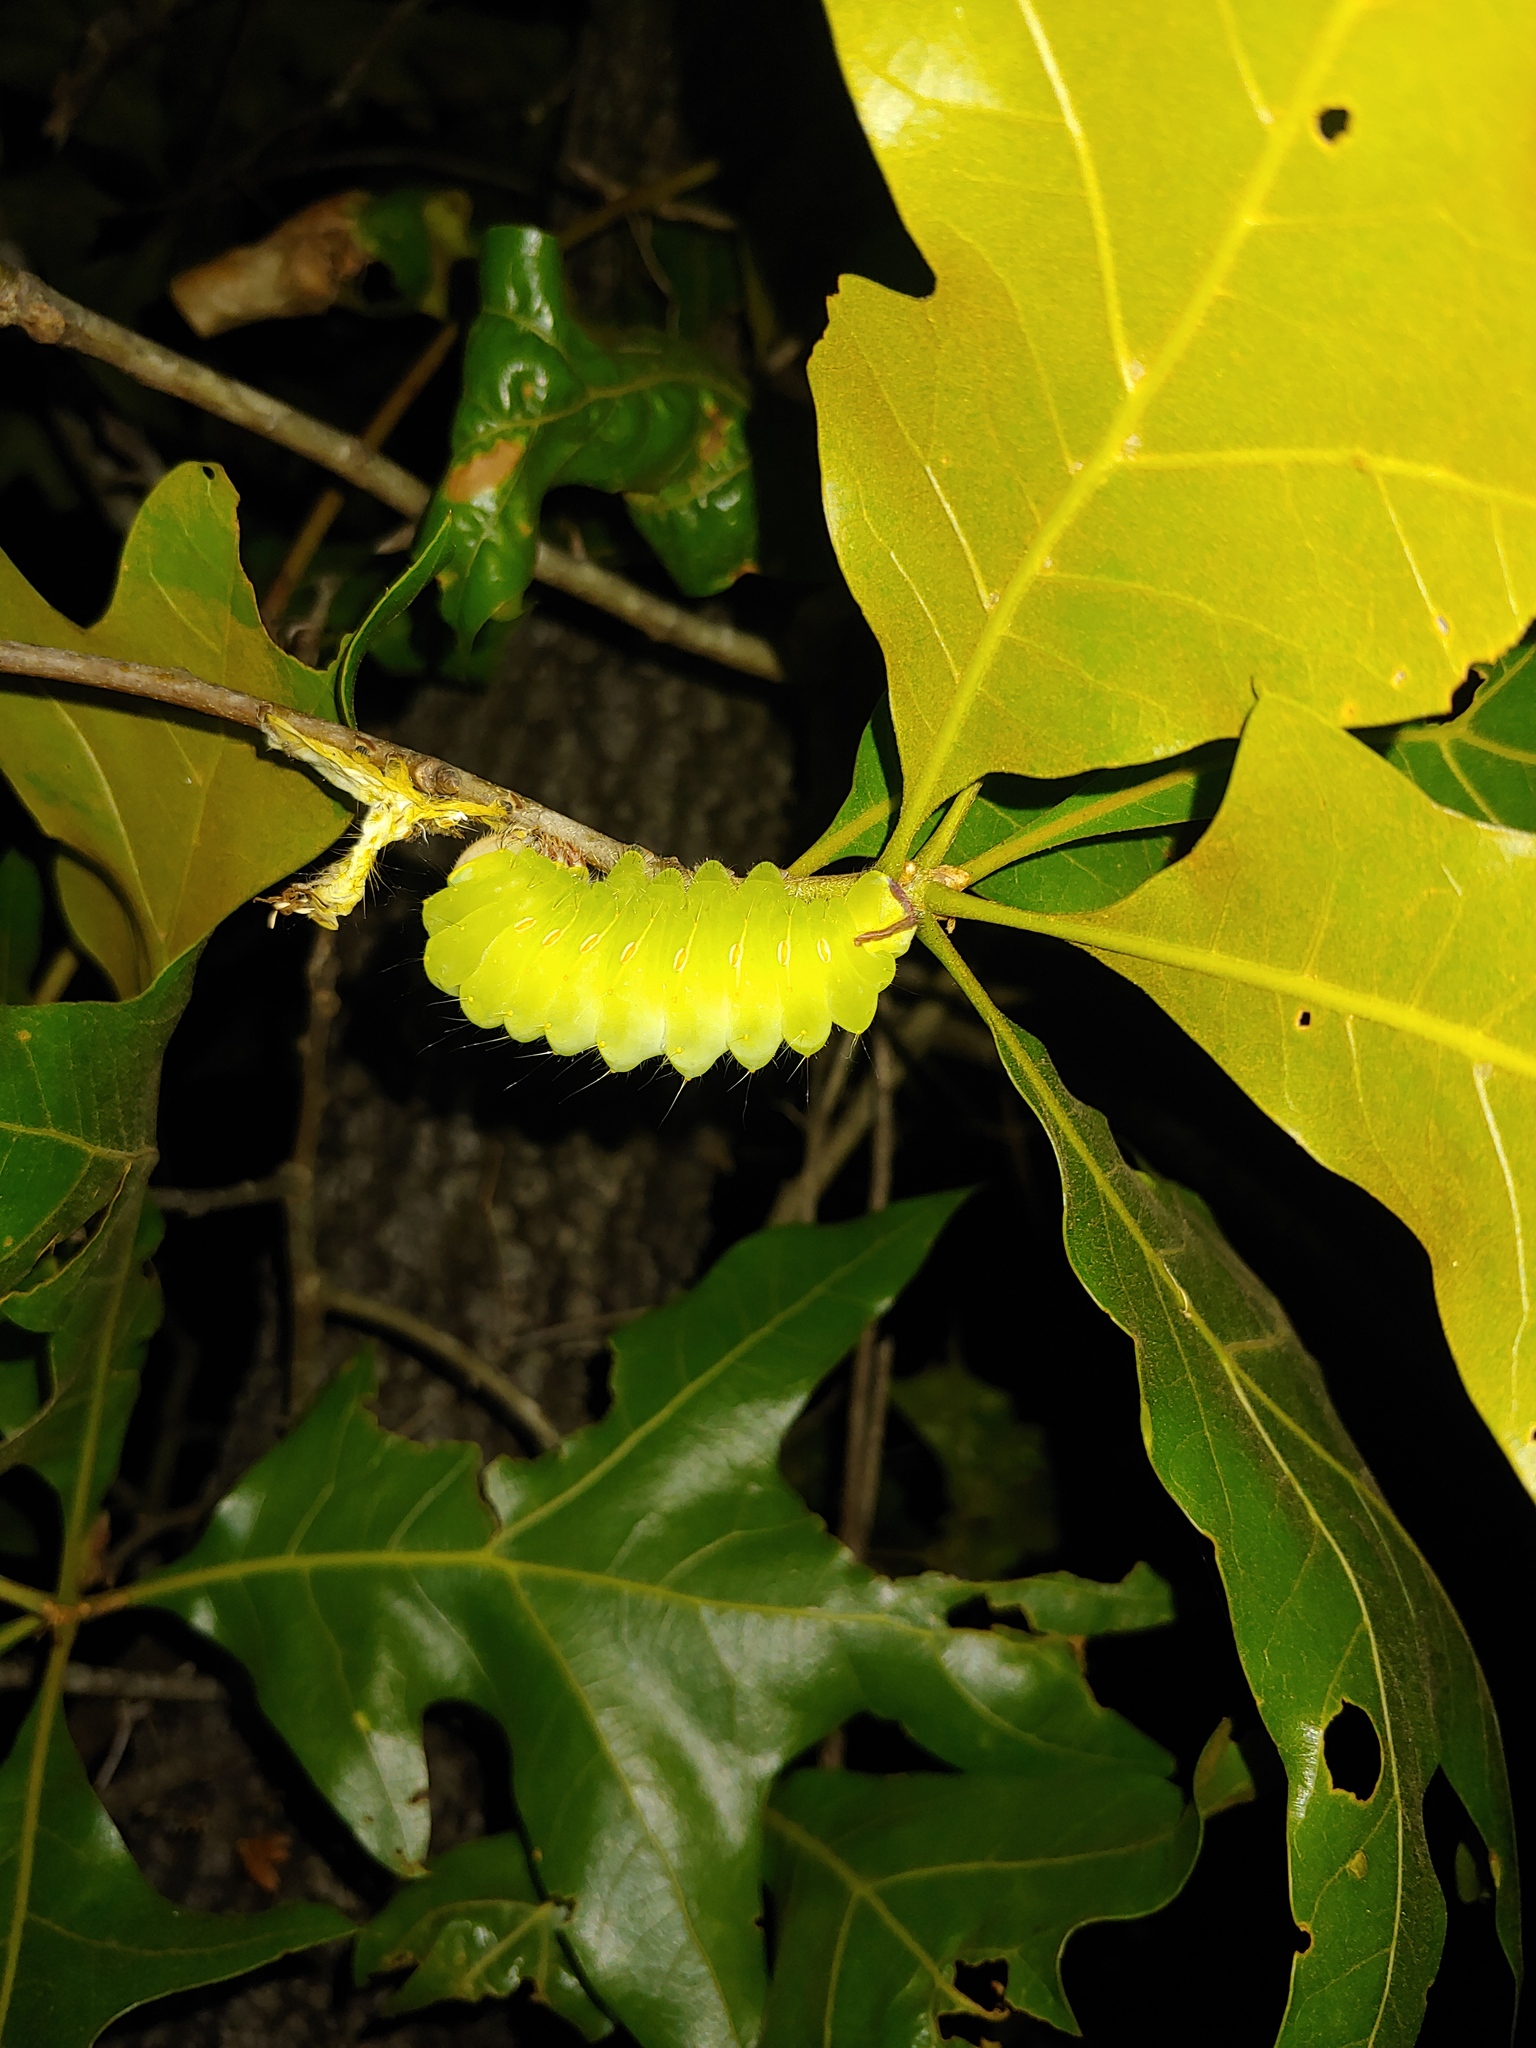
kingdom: Animalia
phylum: Arthropoda
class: Insecta
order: Lepidoptera
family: Saturniidae
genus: Antheraea
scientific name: Antheraea polyphemus
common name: Polyphemus moth
